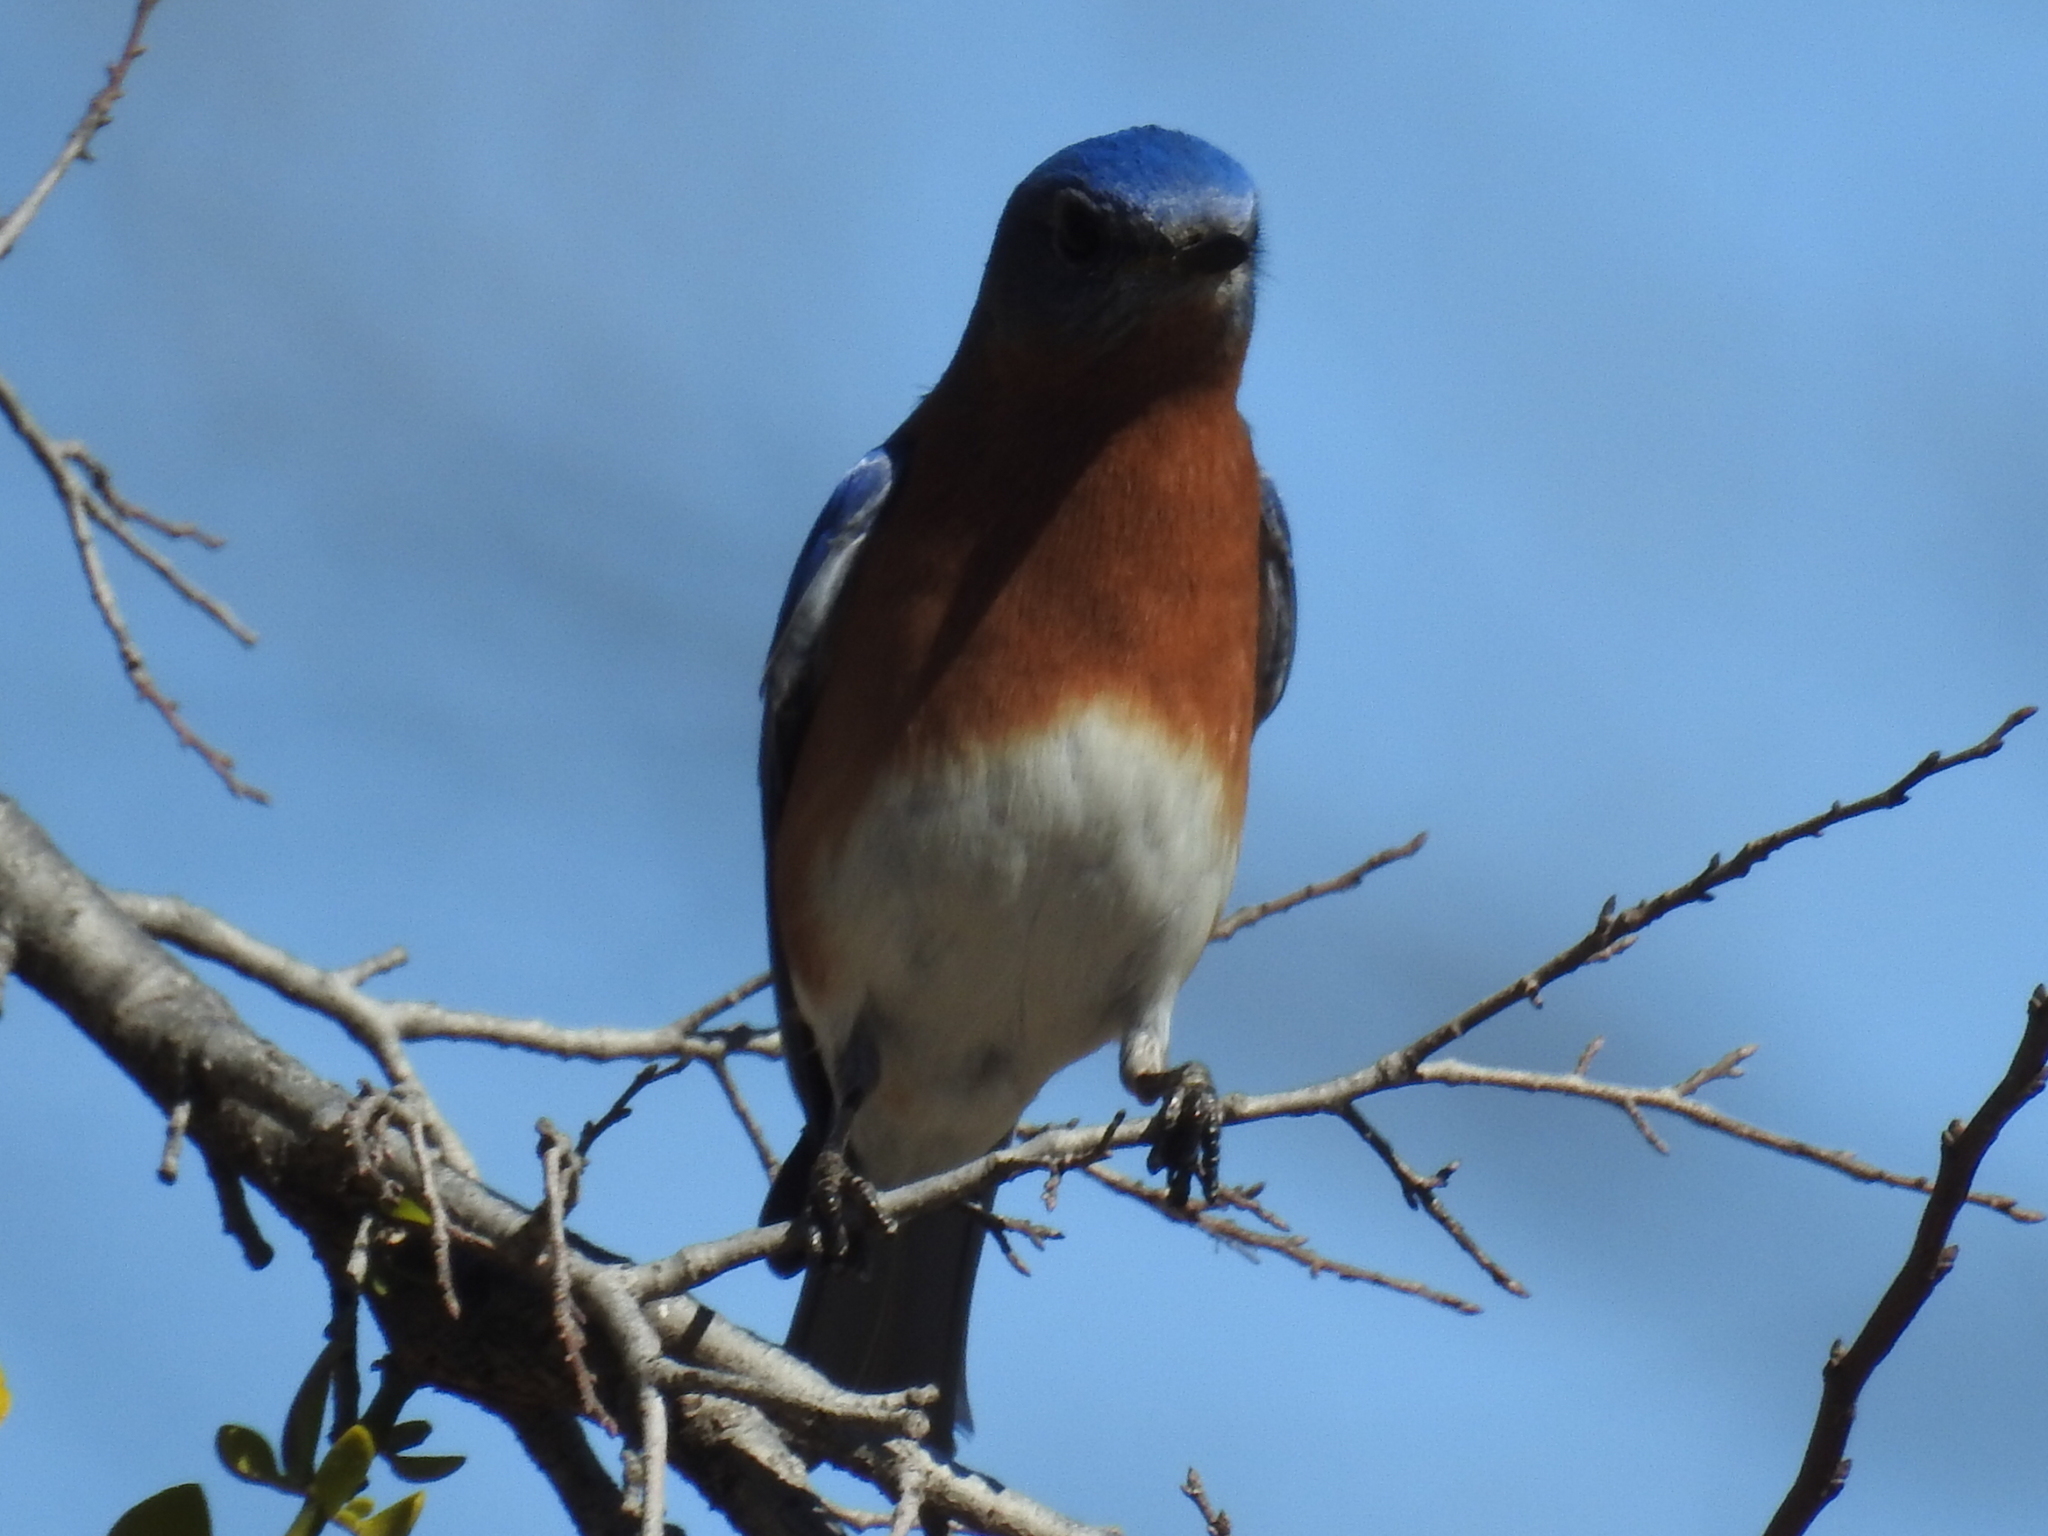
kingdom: Animalia
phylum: Chordata
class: Aves
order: Passeriformes
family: Turdidae
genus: Sialia
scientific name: Sialia sialis
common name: Eastern bluebird
